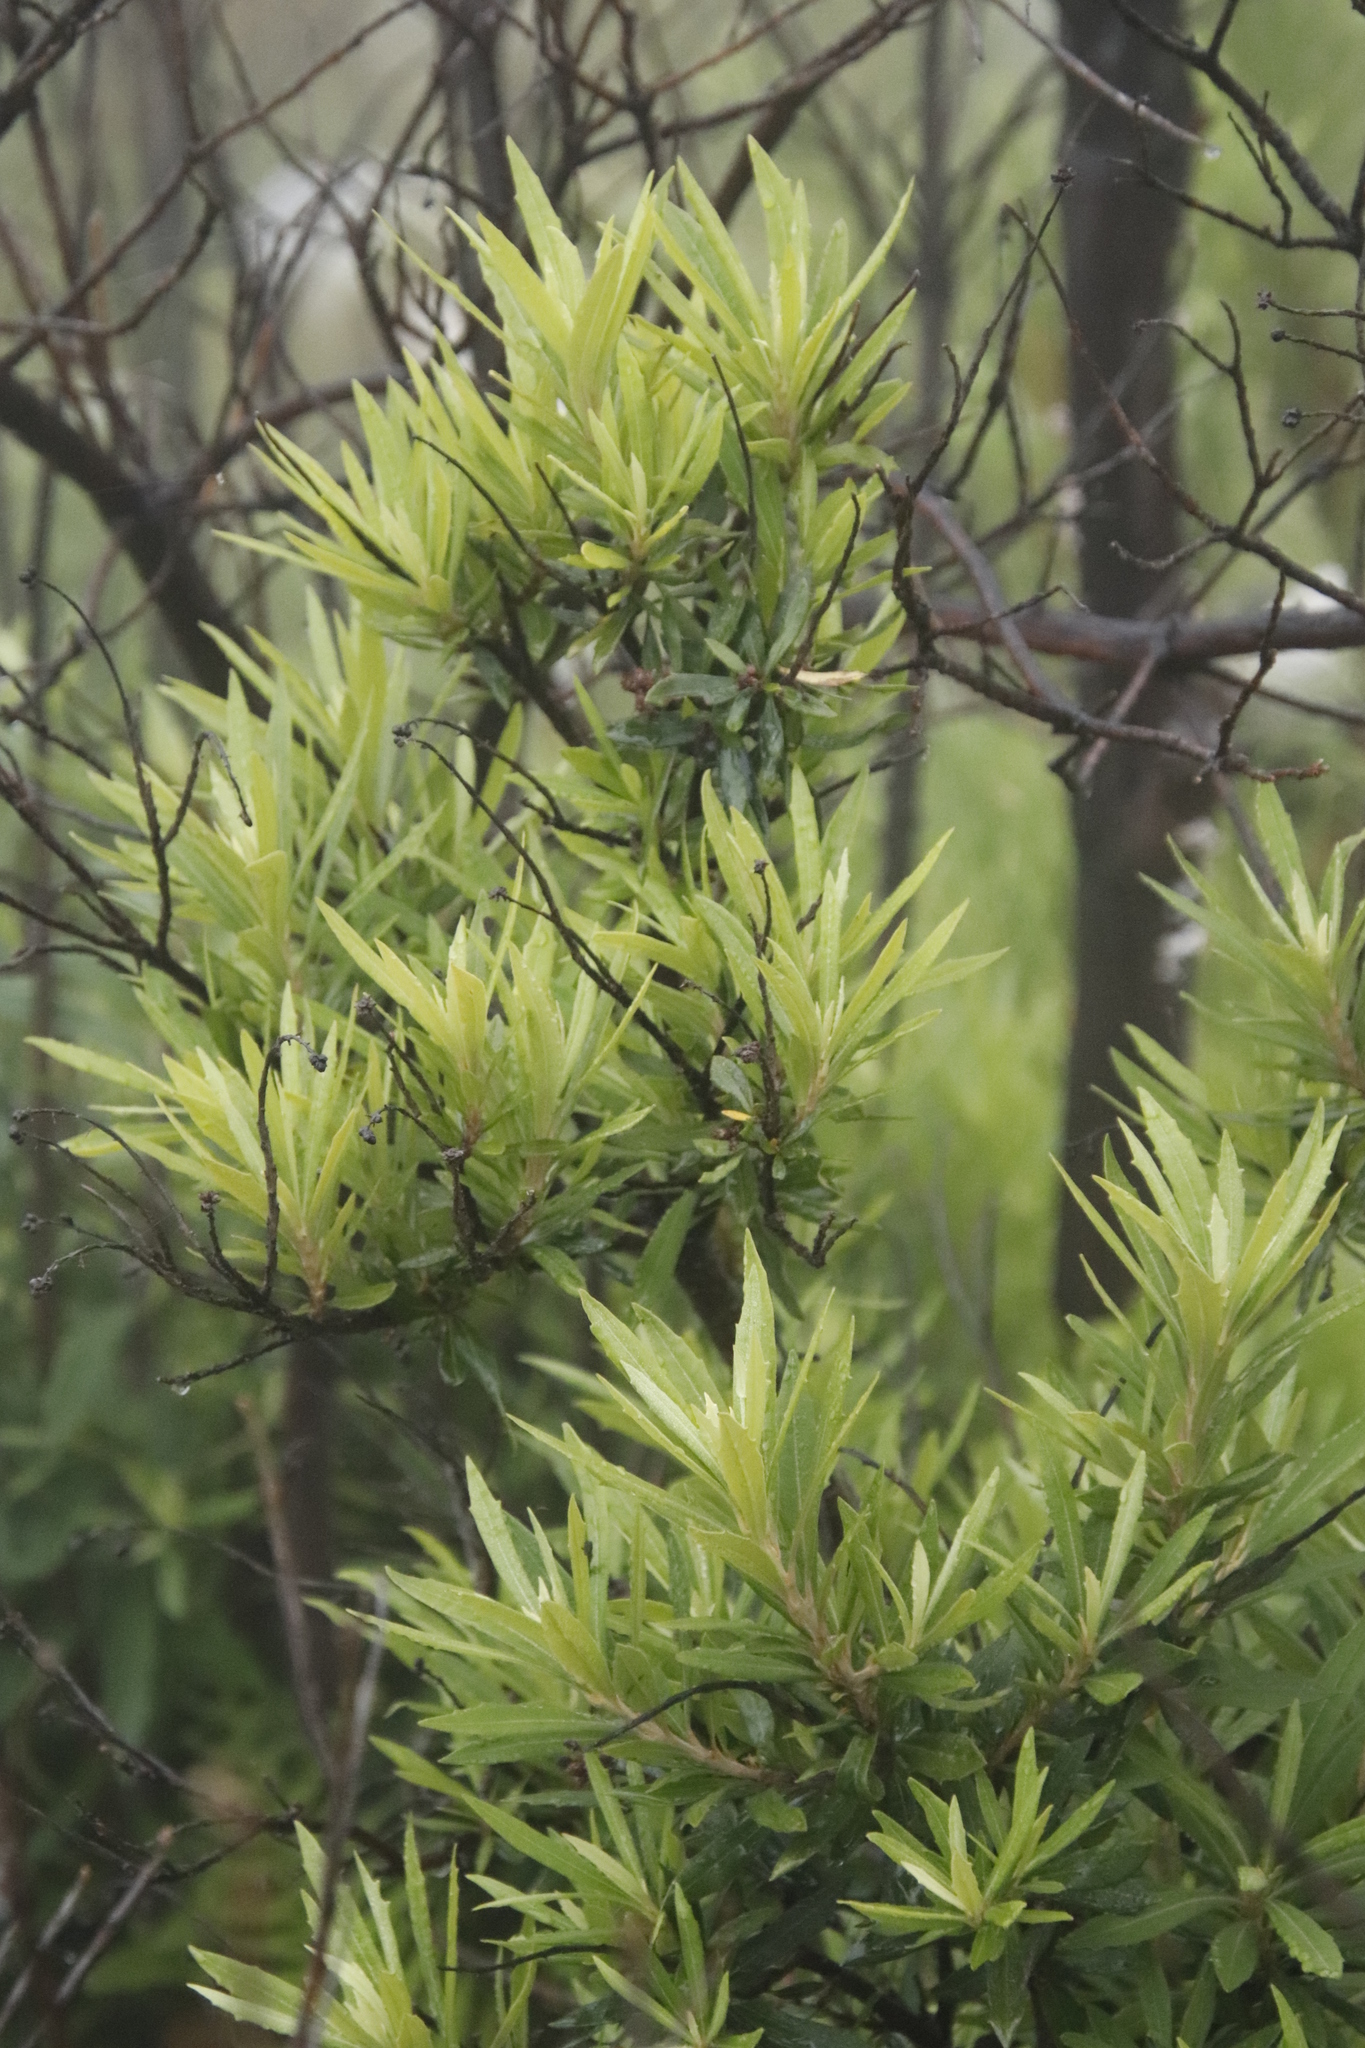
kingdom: Plantae
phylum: Tracheophyta
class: Magnoliopsida
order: Asterales
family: Asteraceae
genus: Brachylaena
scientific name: Brachylaena neriifolia
